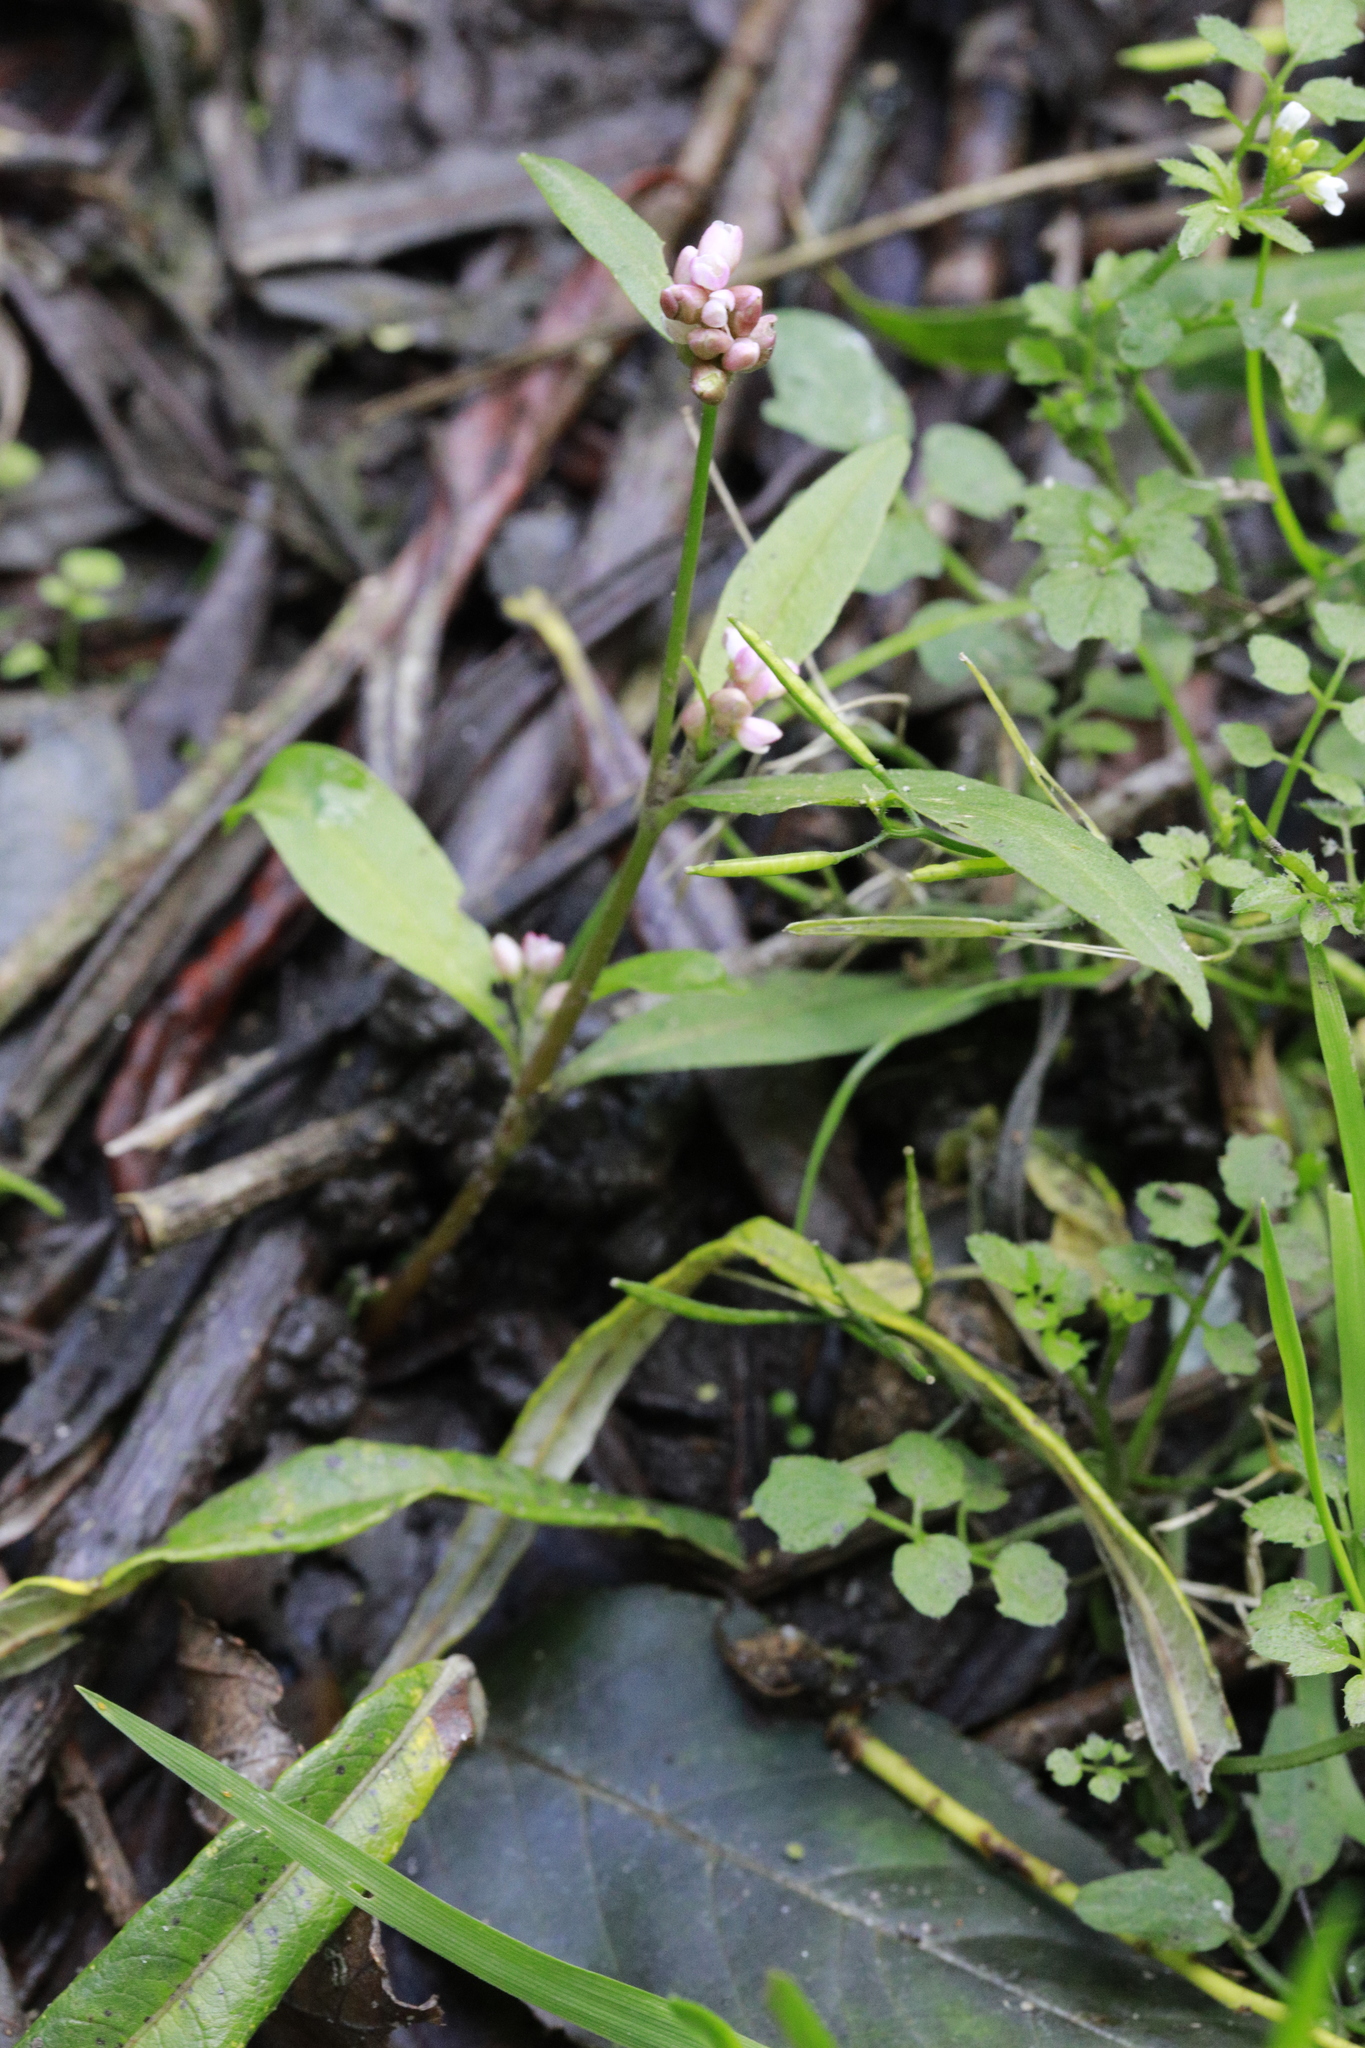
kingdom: Plantae
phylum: Tracheophyta
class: Magnoliopsida
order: Caryophyllales
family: Polygonaceae
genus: Persicaria
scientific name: Persicaria maculosa
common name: Redshank
